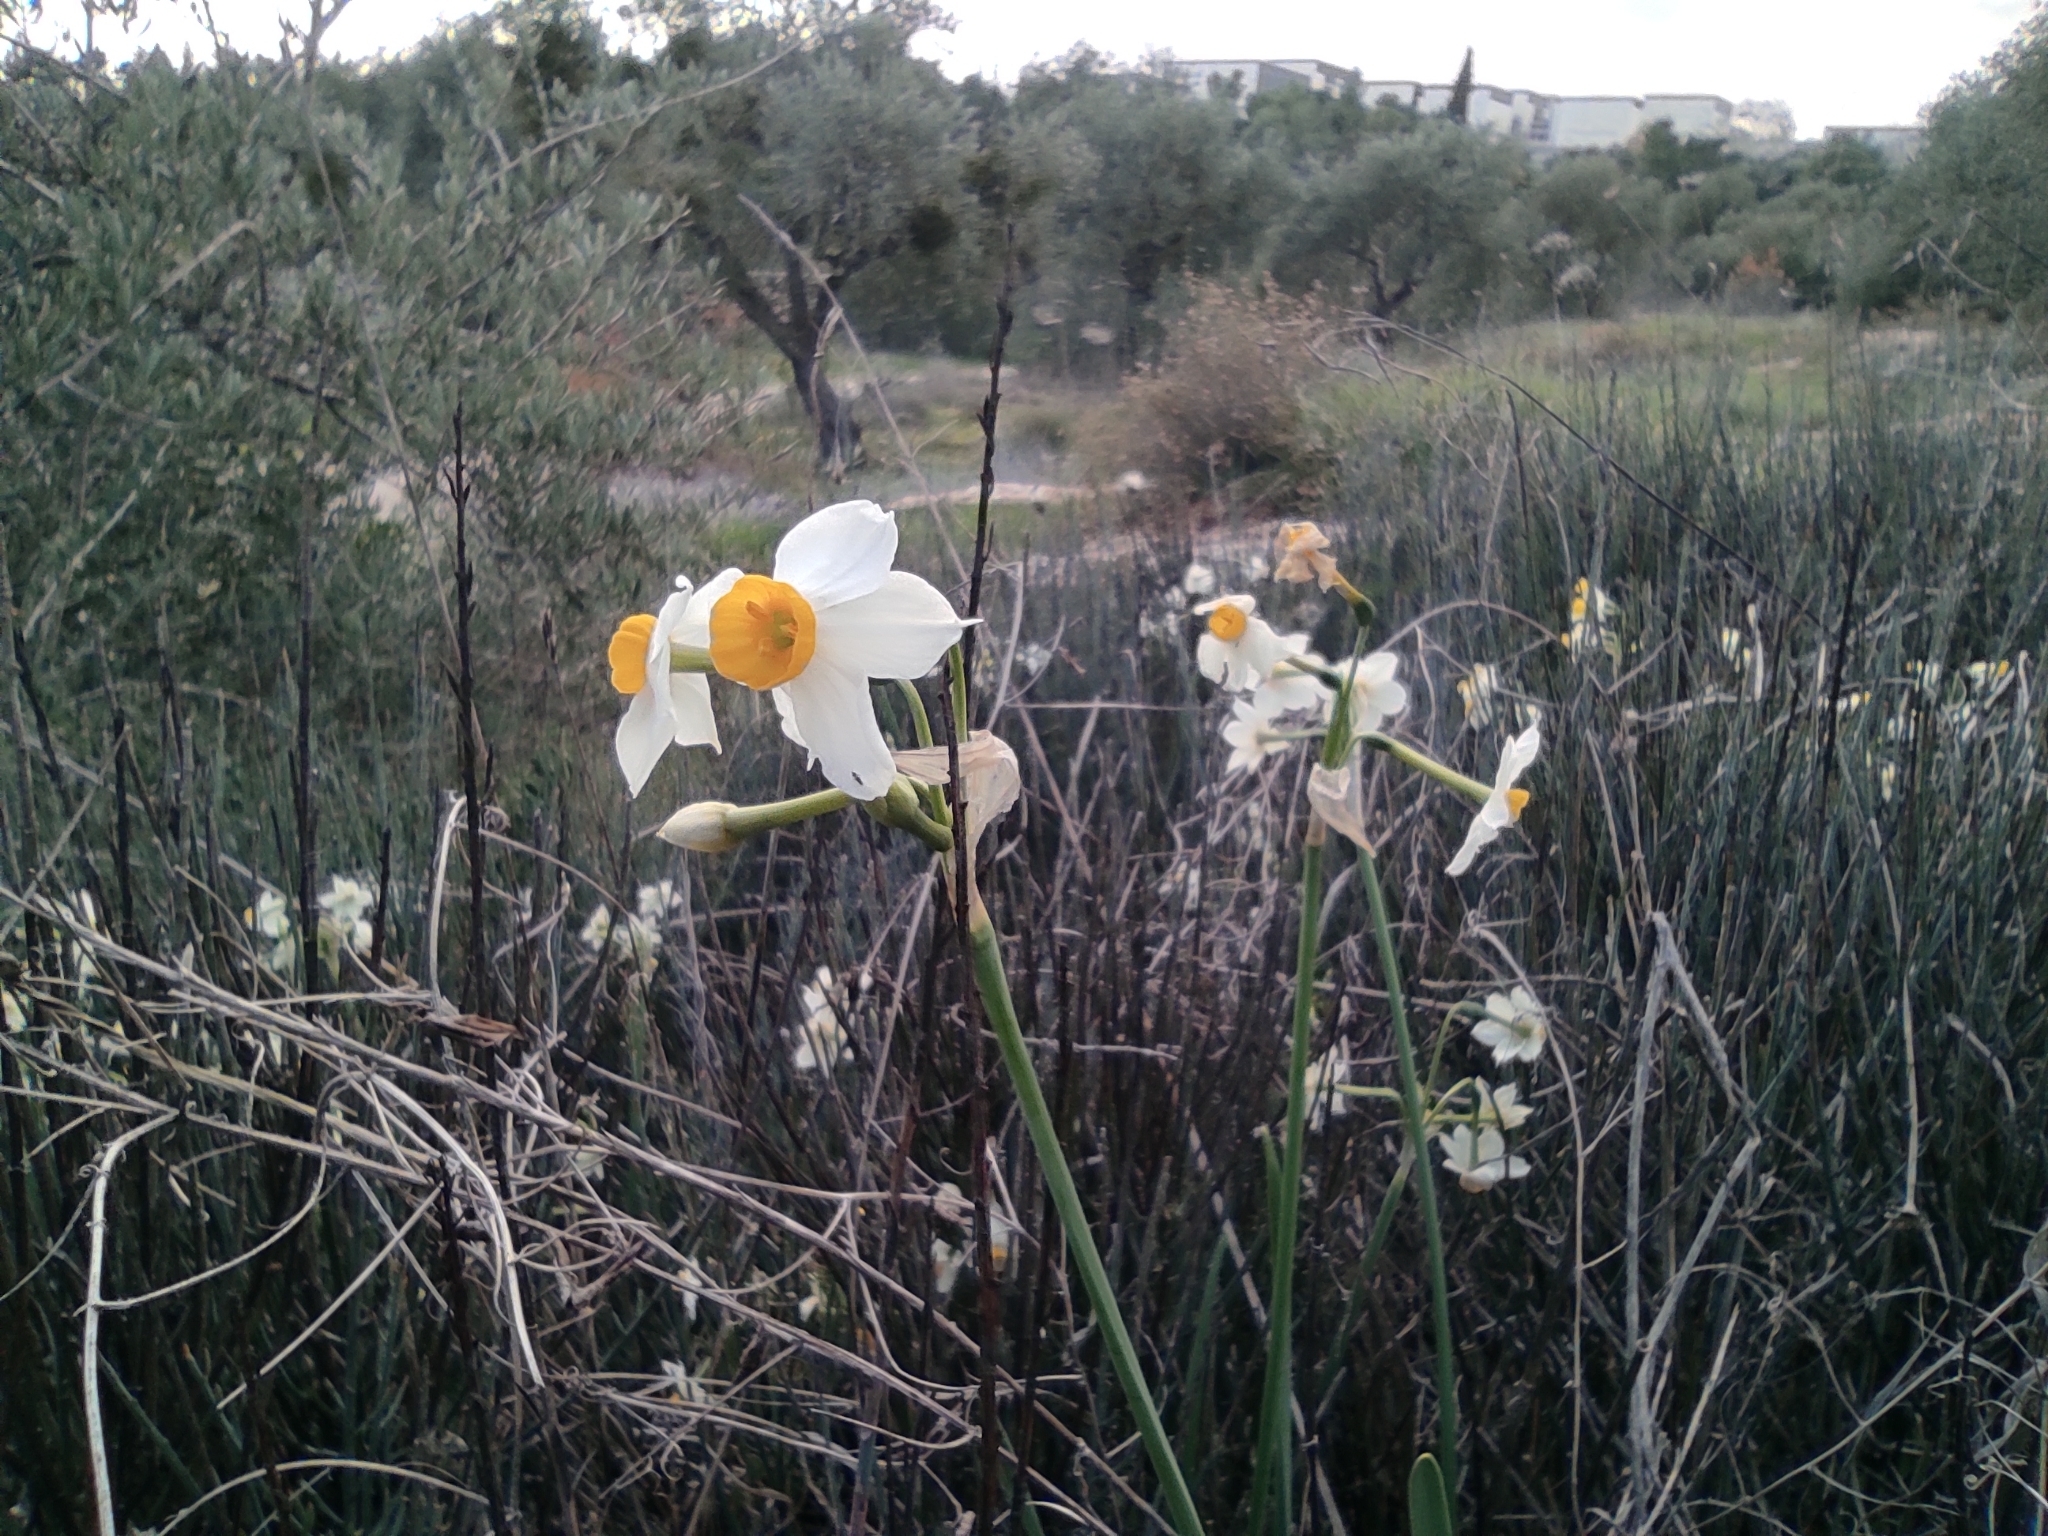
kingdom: Plantae
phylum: Tracheophyta
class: Liliopsida
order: Asparagales
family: Amaryllidaceae
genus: Narcissus
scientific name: Narcissus tazetta
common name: Bunch-flowered daffodil
